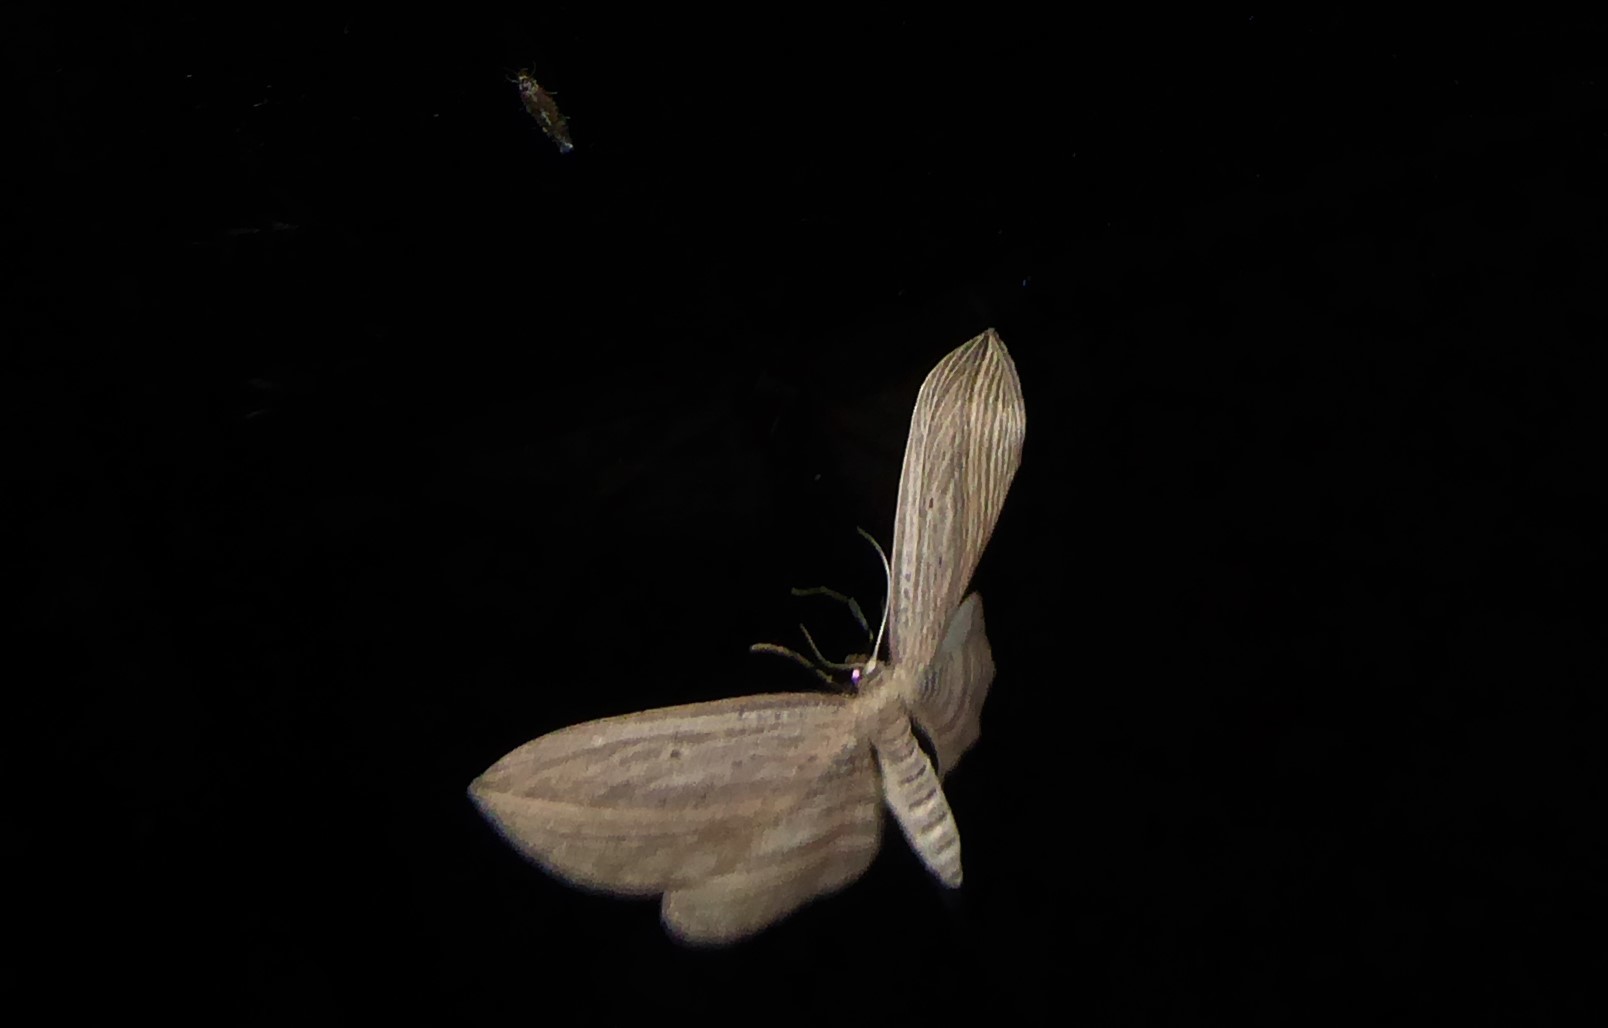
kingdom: Animalia
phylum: Arthropoda
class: Insecta
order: Lepidoptera
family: Geometridae
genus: Epiphryne
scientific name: Epiphryne verriculata
